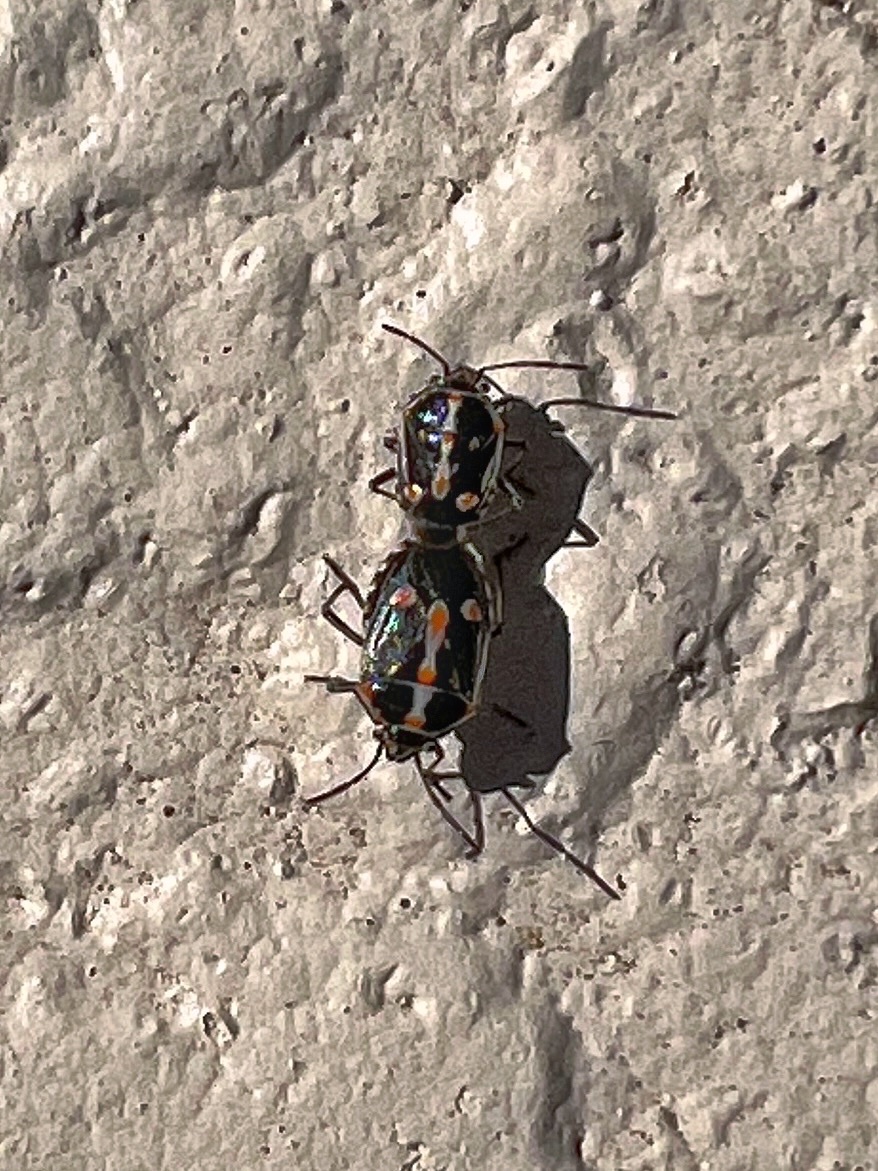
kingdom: Animalia
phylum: Arthropoda
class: Insecta
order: Hemiptera
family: Pentatomidae
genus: Bagrada
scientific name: Bagrada hilaris
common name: Bagrada bug
